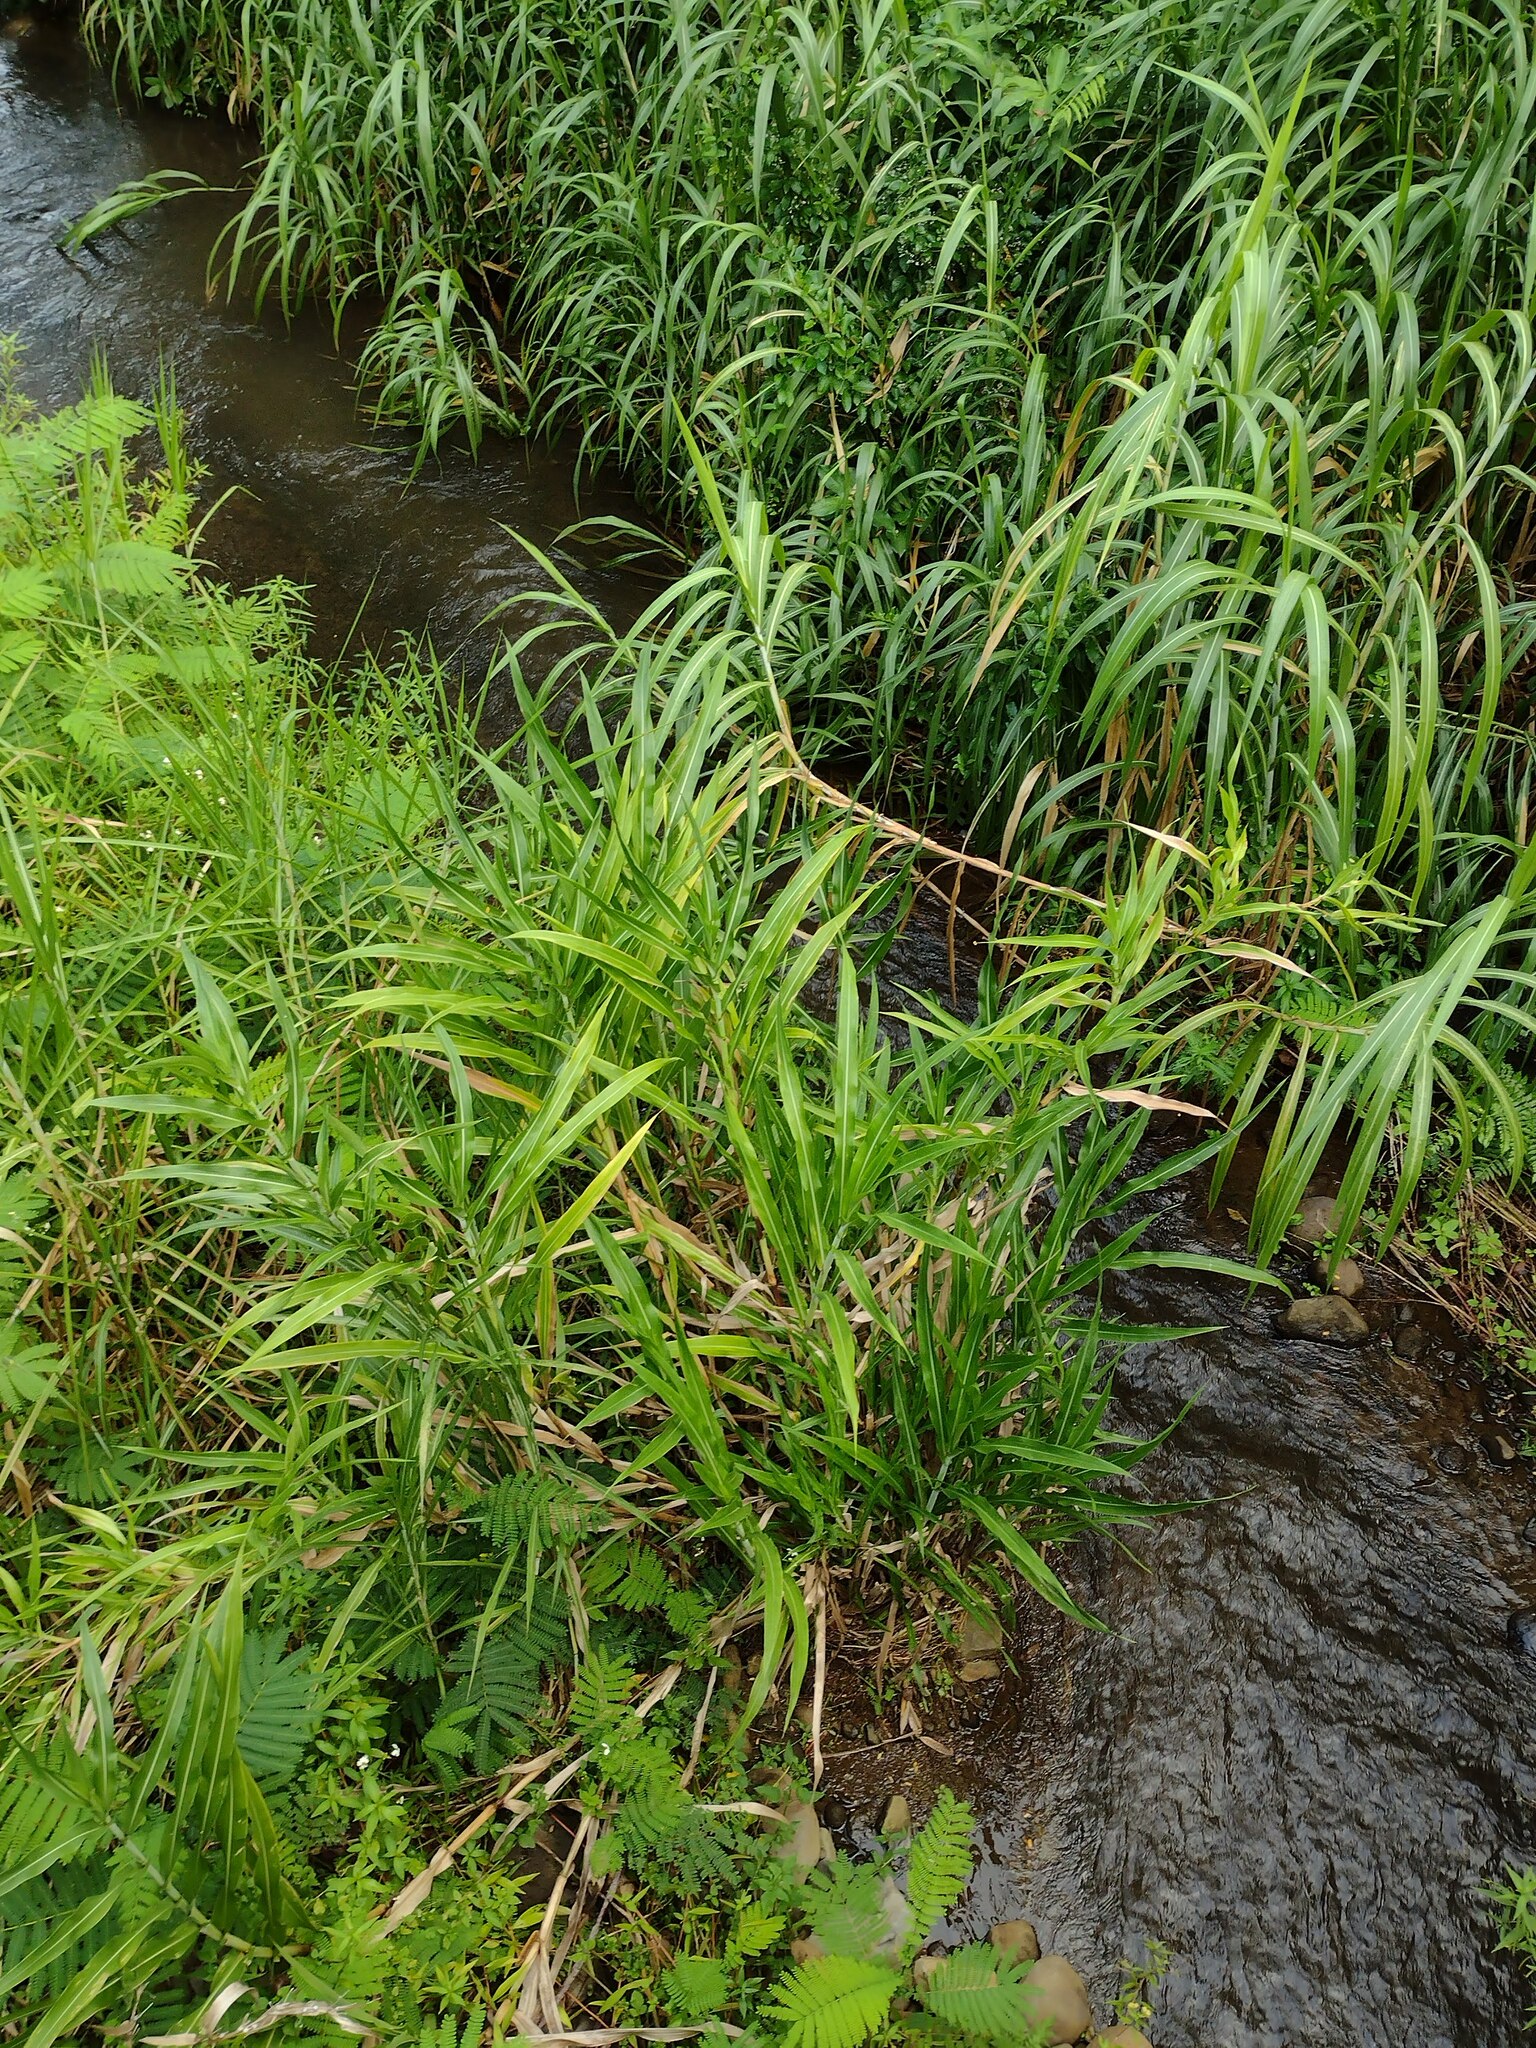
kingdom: Plantae
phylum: Tracheophyta
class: Liliopsida
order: Poales
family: Poaceae
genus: Coix
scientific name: Coix lacryma-jobi
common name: Job's tears
